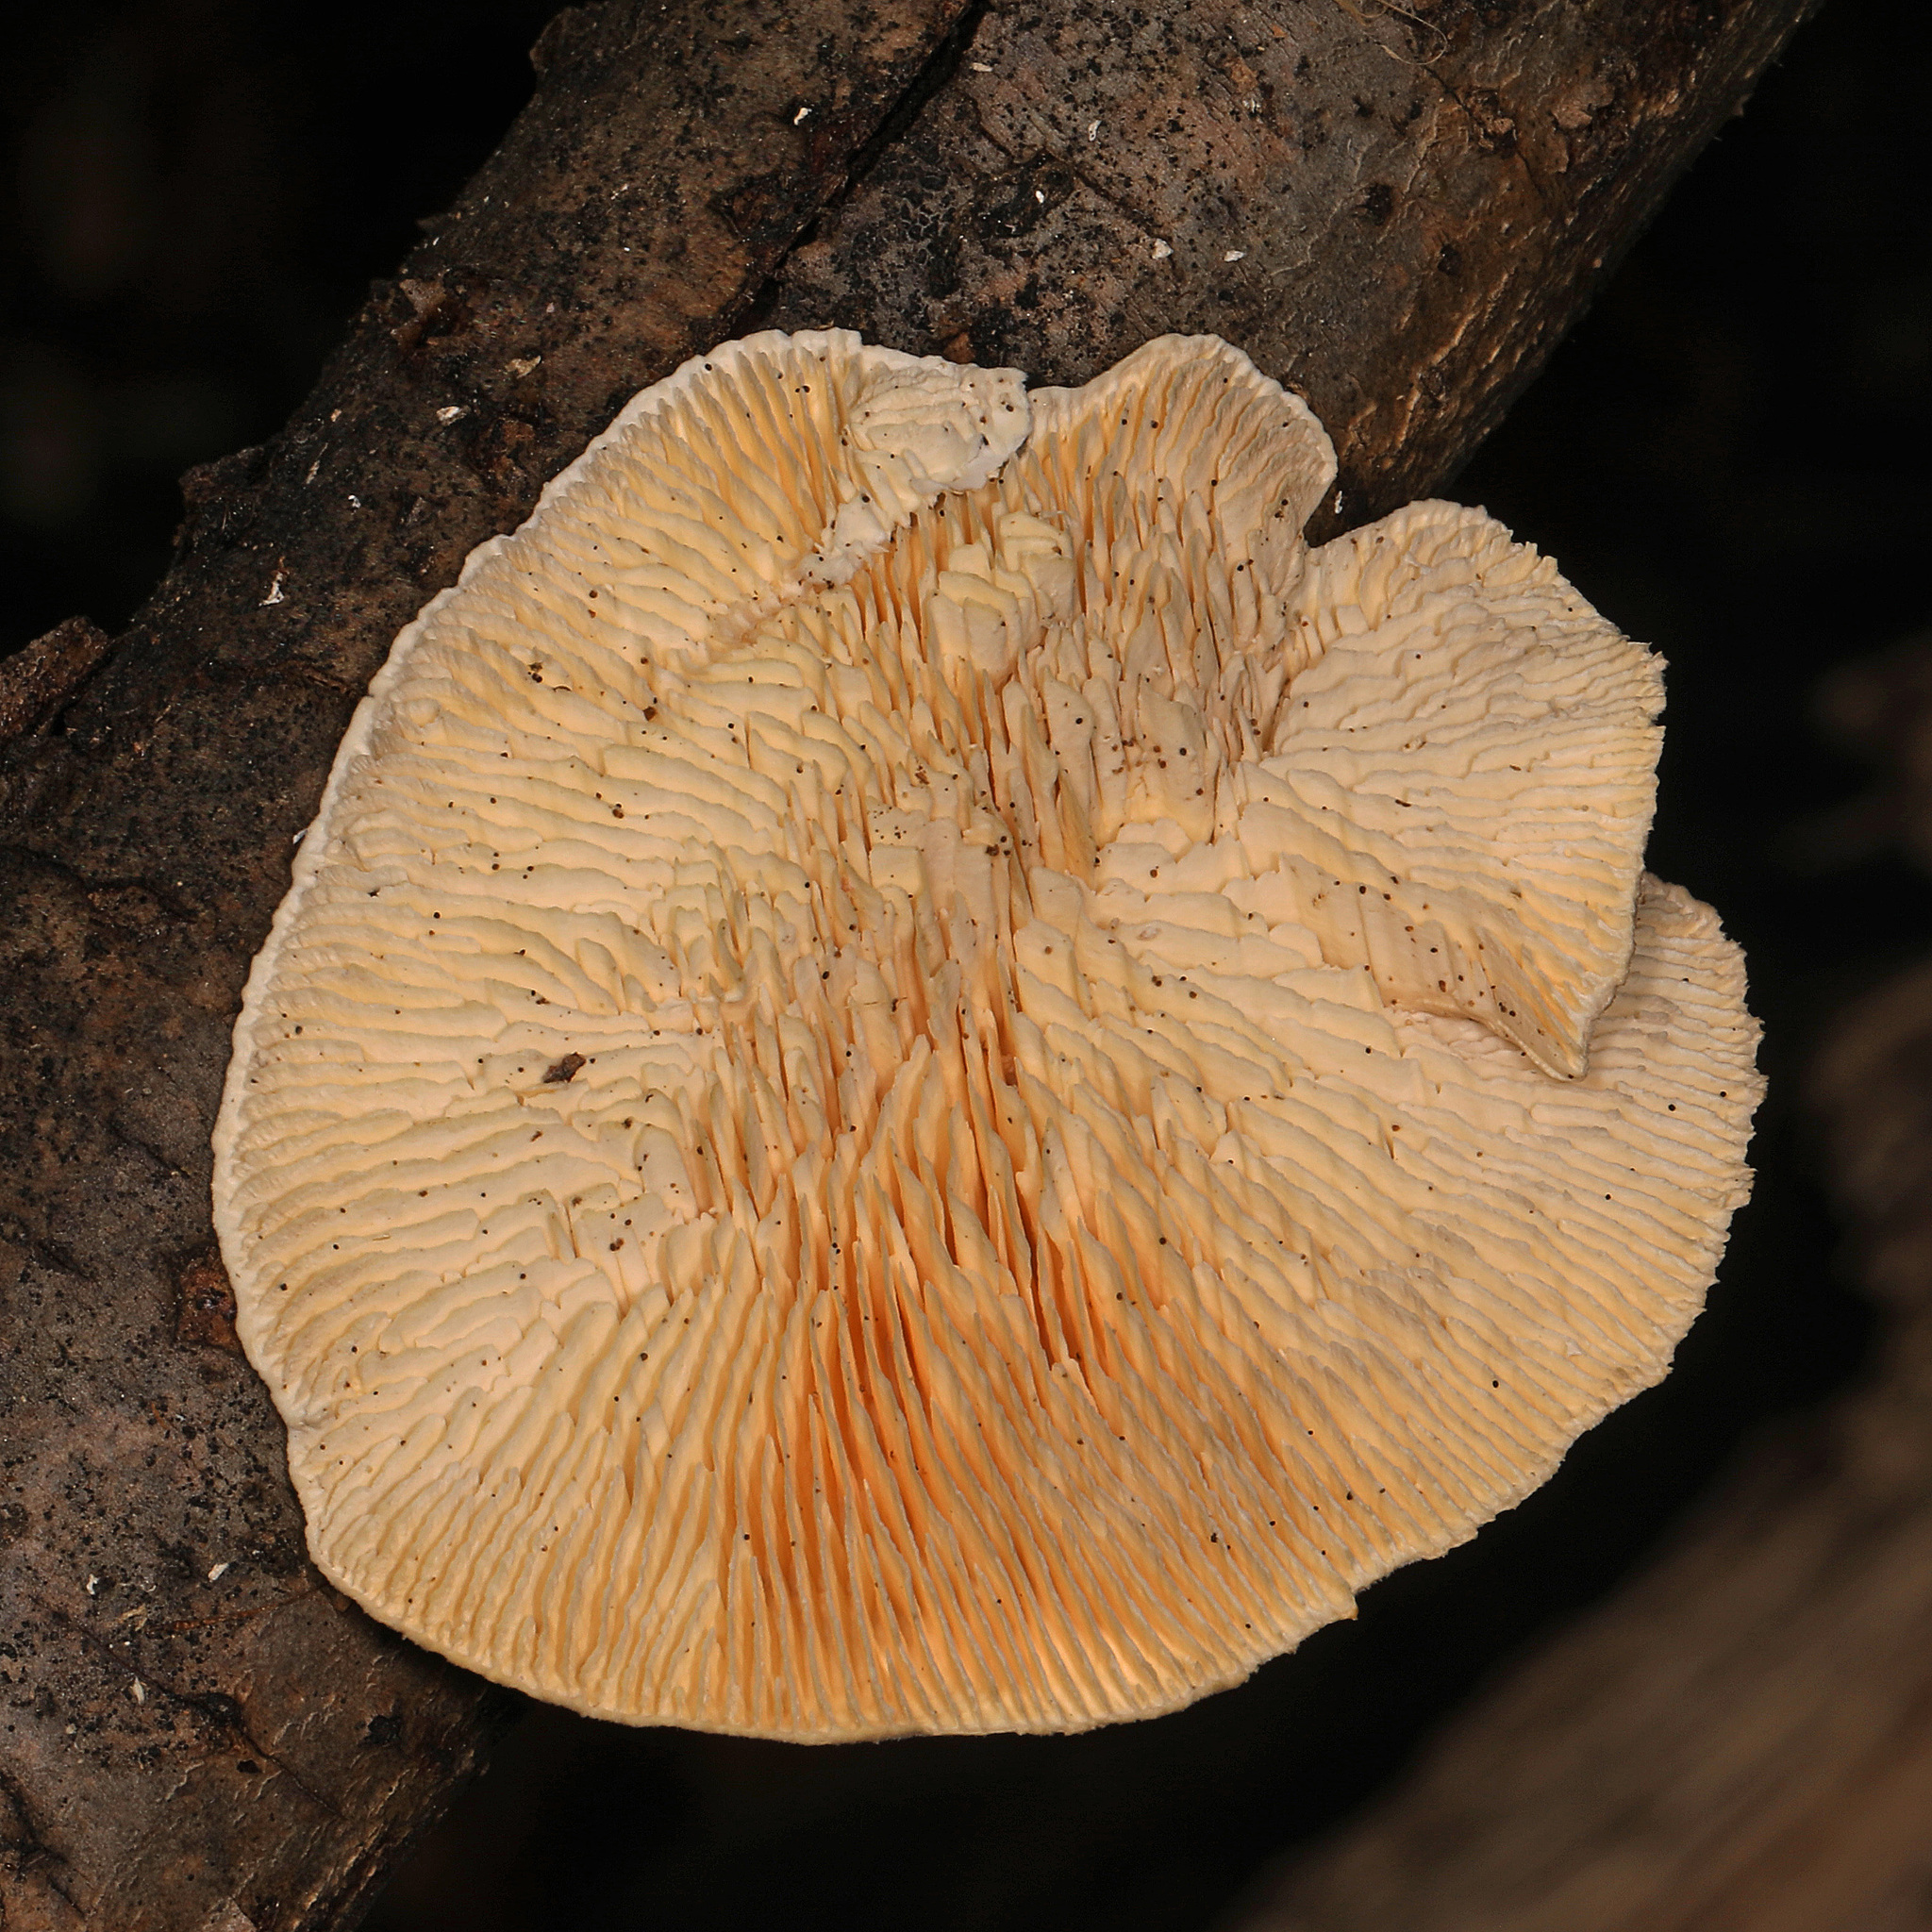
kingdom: Fungi
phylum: Basidiomycota
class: Agaricomycetes
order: Polyporales
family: Polyporaceae
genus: Lenzites
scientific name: Lenzites betulinus
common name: Birch mazegill
